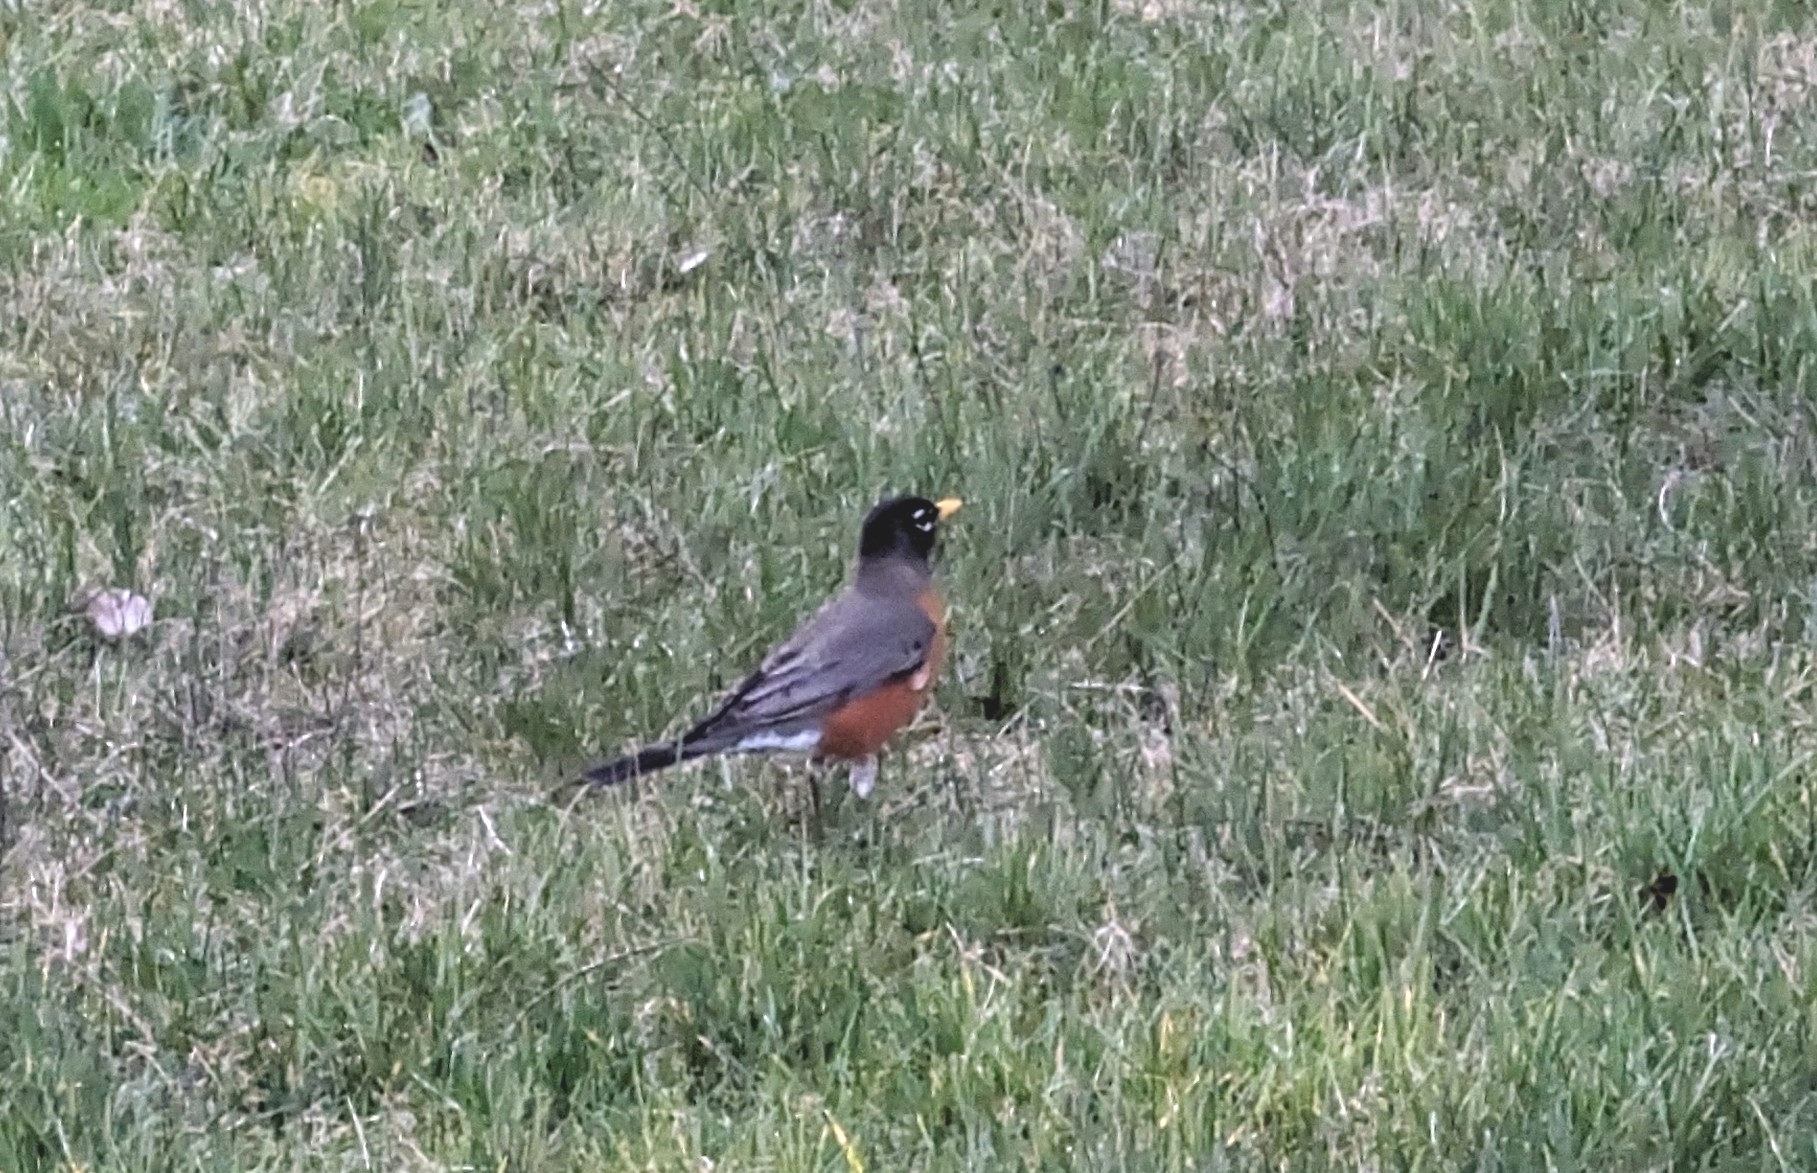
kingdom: Animalia
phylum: Chordata
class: Aves
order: Passeriformes
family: Turdidae
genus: Turdus
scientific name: Turdus migratorius
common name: American robin
